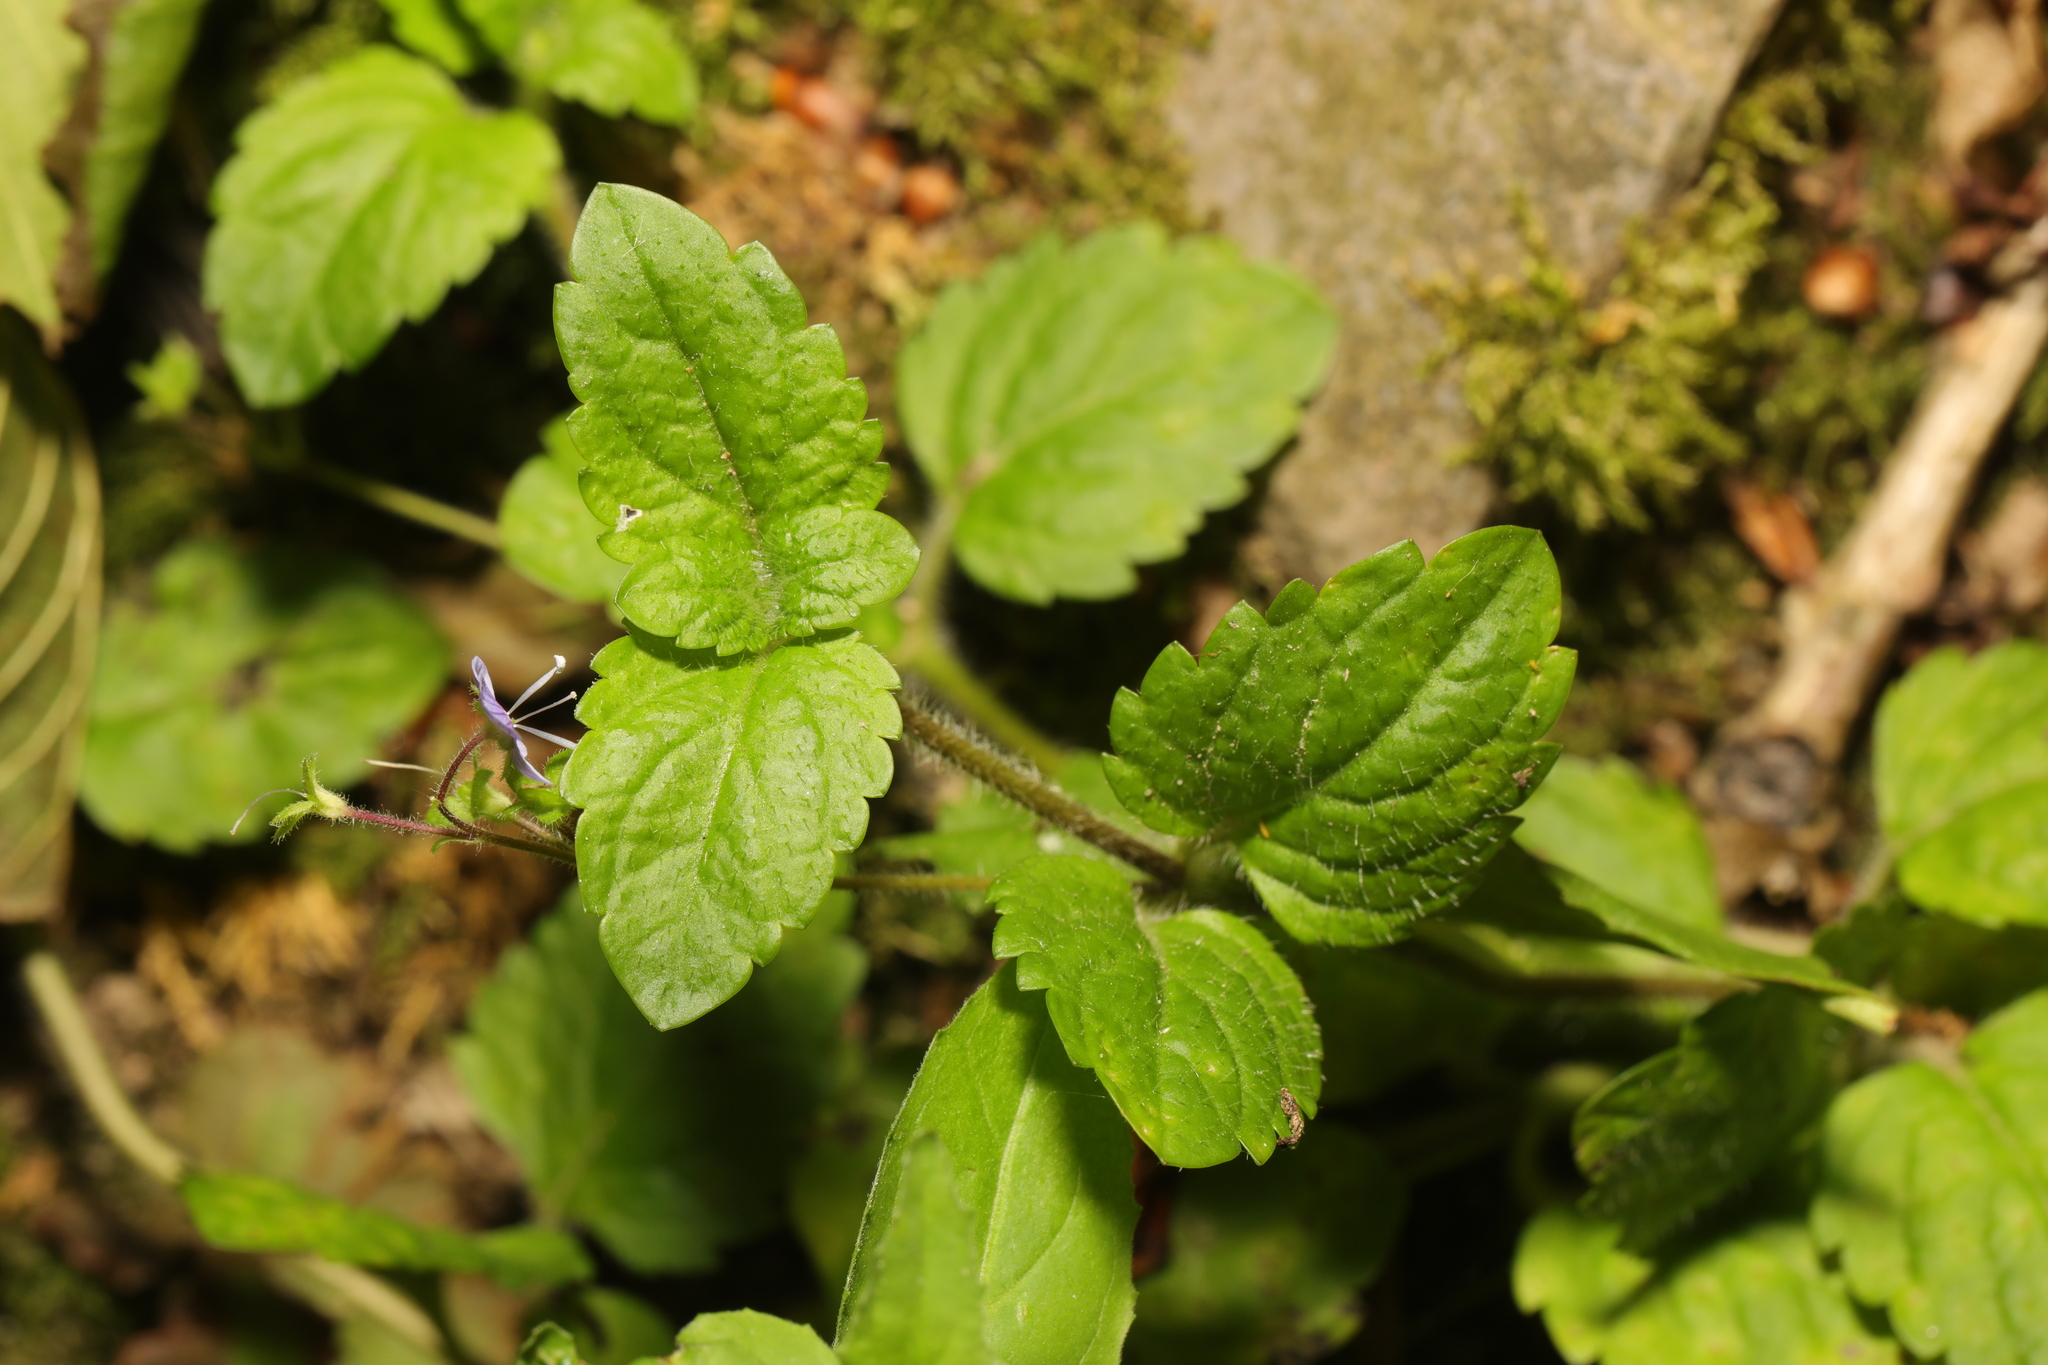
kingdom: Plantae
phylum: Tracheophyta
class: Magnoliopsida
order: Lamiales
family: Plantaginaceae
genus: Veronica
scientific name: Veronica montana
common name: Wood speedwell
